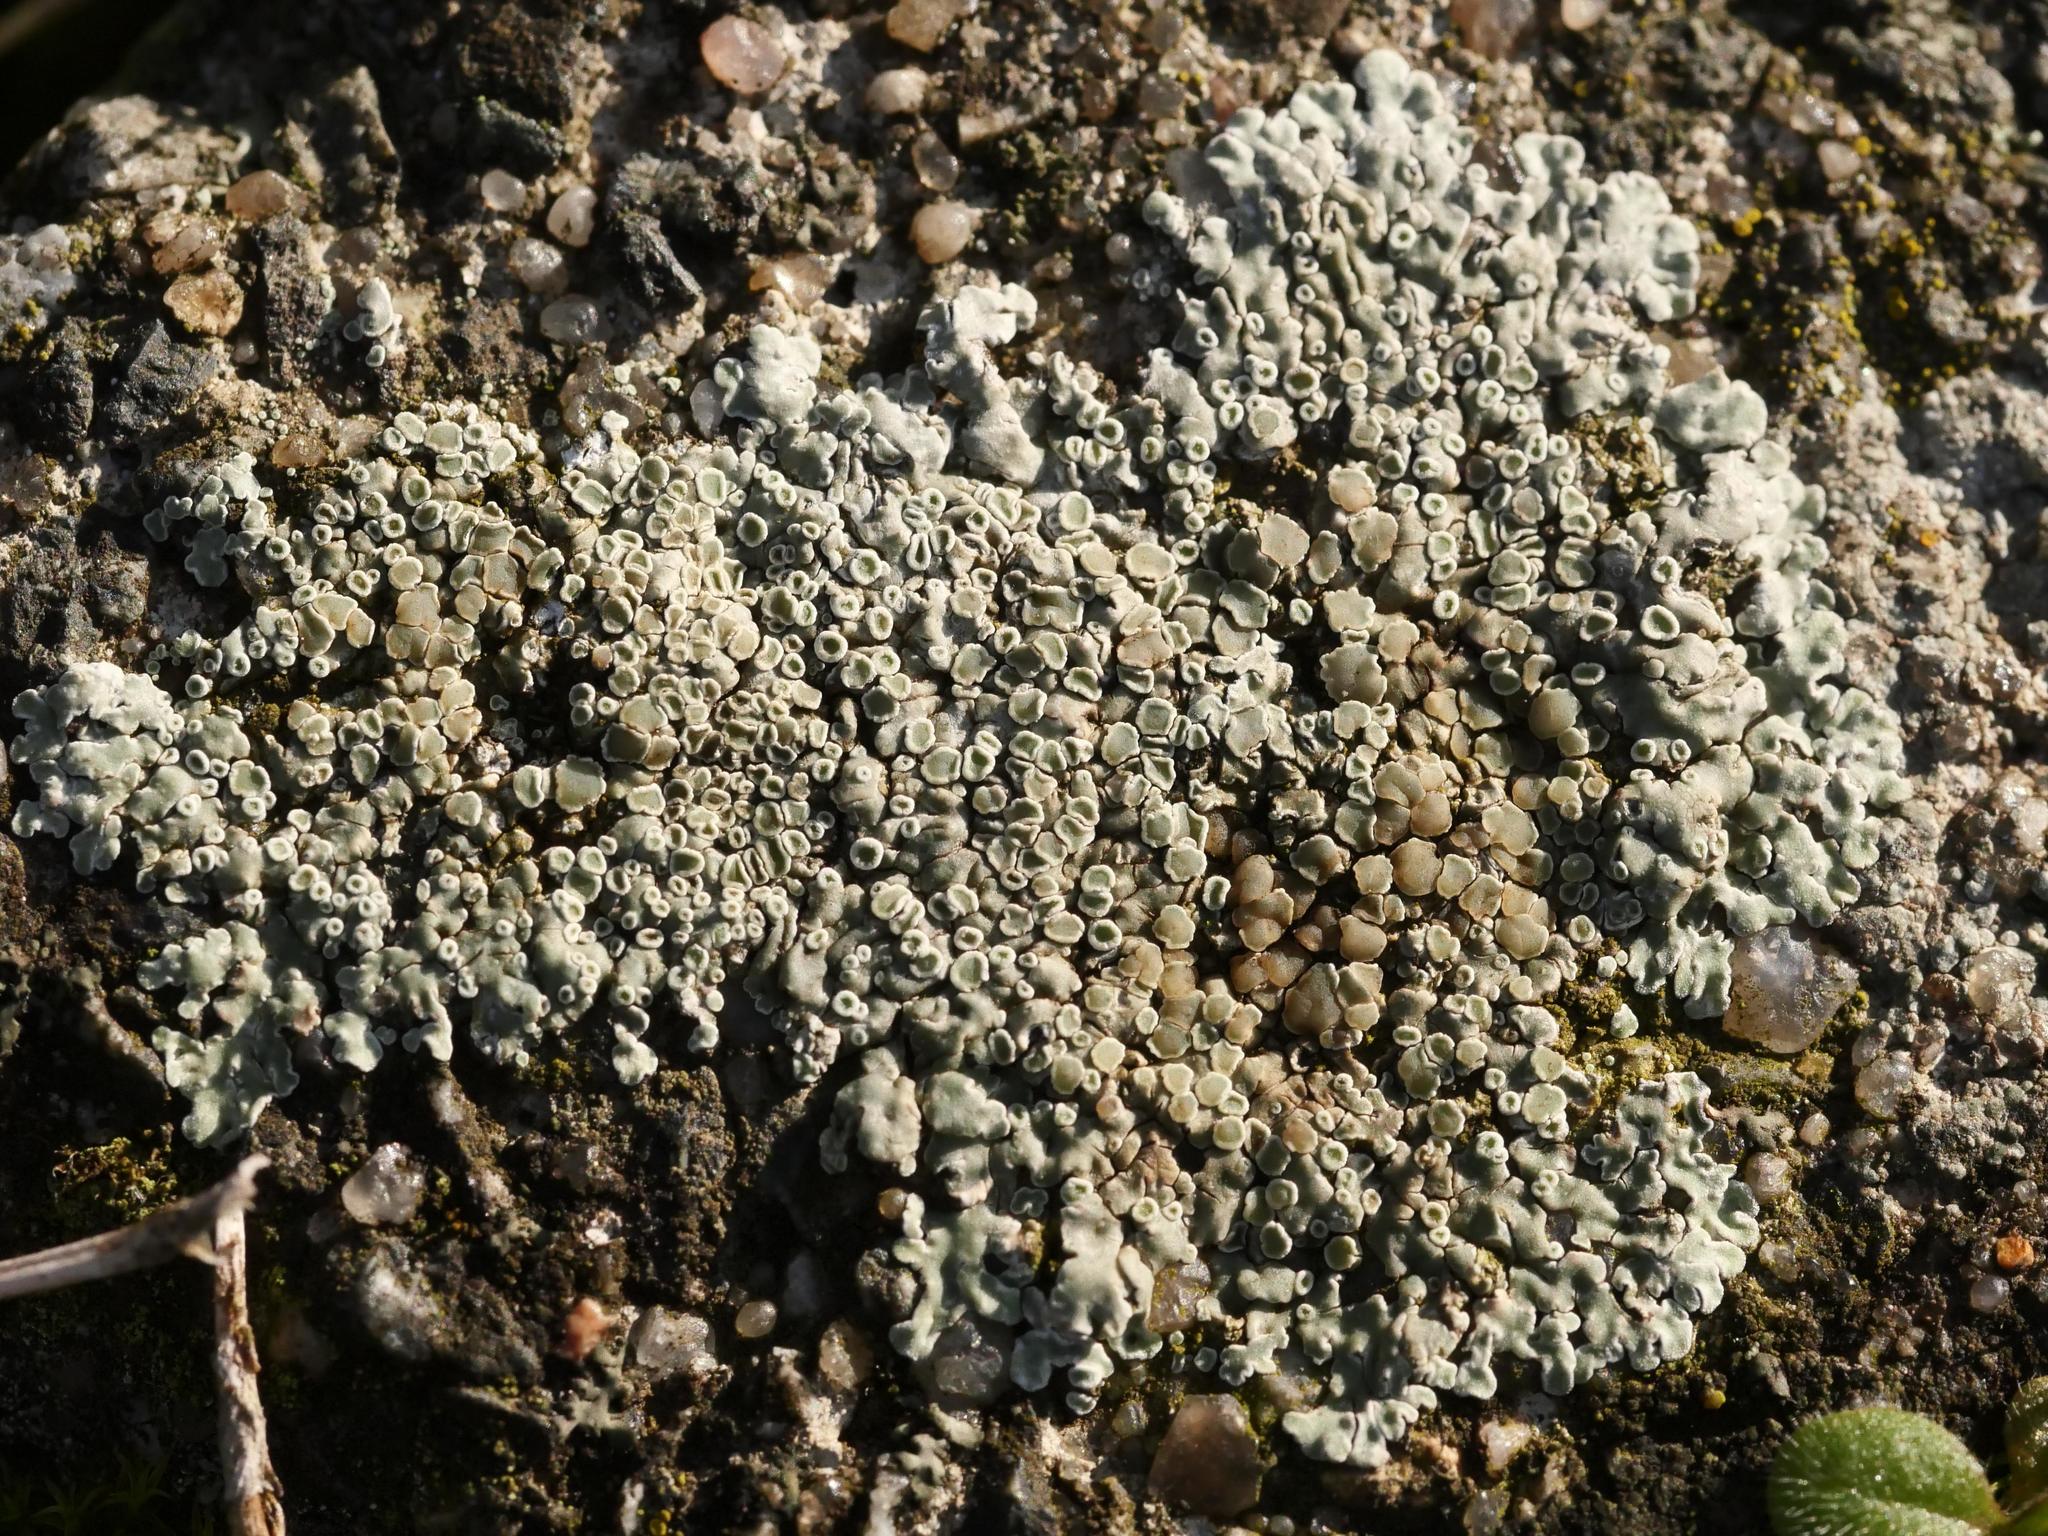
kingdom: Fungi
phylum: Ascomycota
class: Lecanoromycetes
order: Lecanorales
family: Lecanoraceae
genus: Protoparmeliopsis
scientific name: Protoparmeliopsis muralis
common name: Stonewall rim lichen
